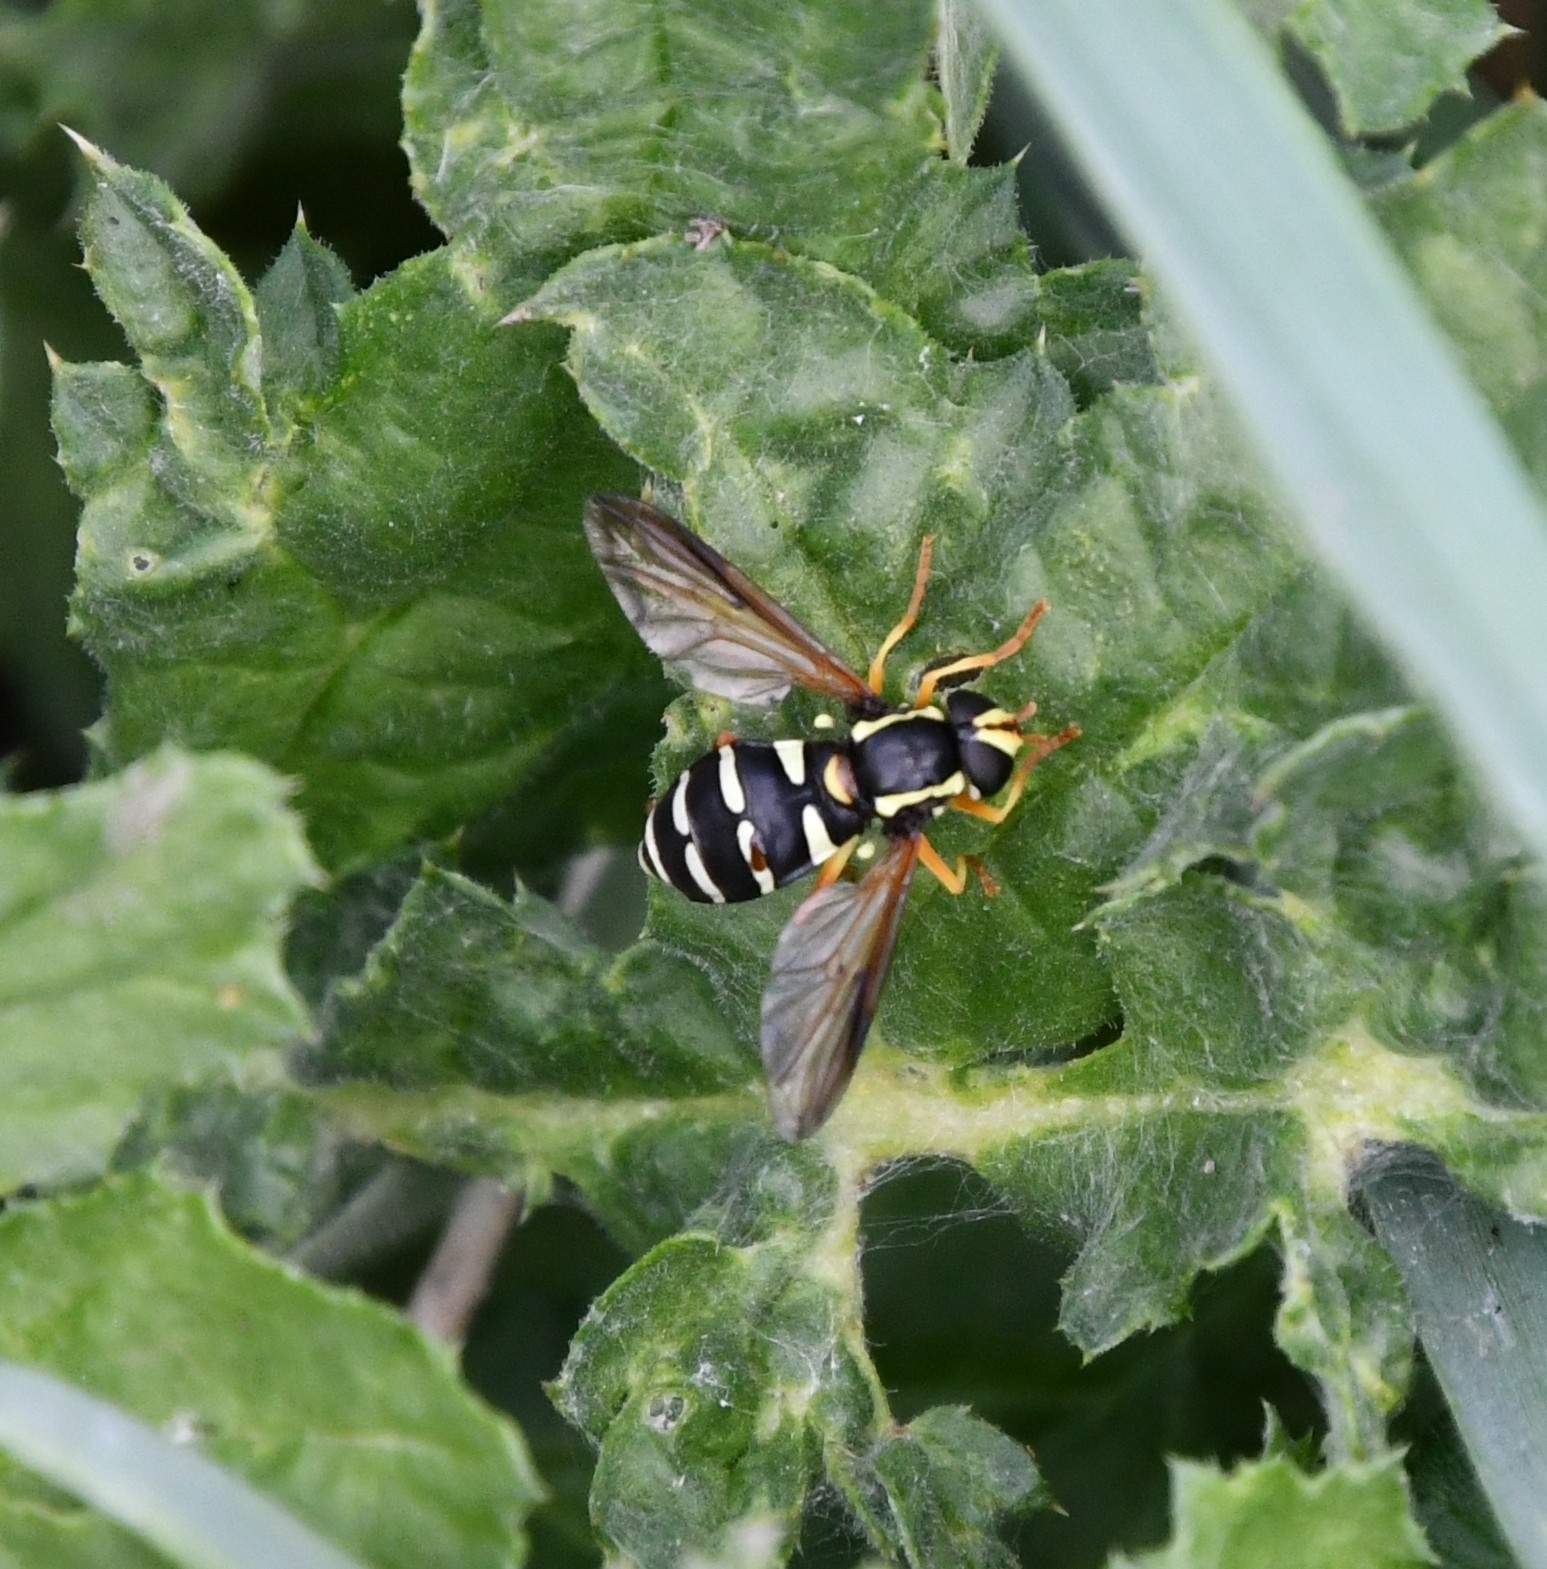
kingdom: Animalia
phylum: Arthropoda
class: Insecta
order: Diptera
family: Syrphidae
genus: Philhelius
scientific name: Philhelius citrofasciata
